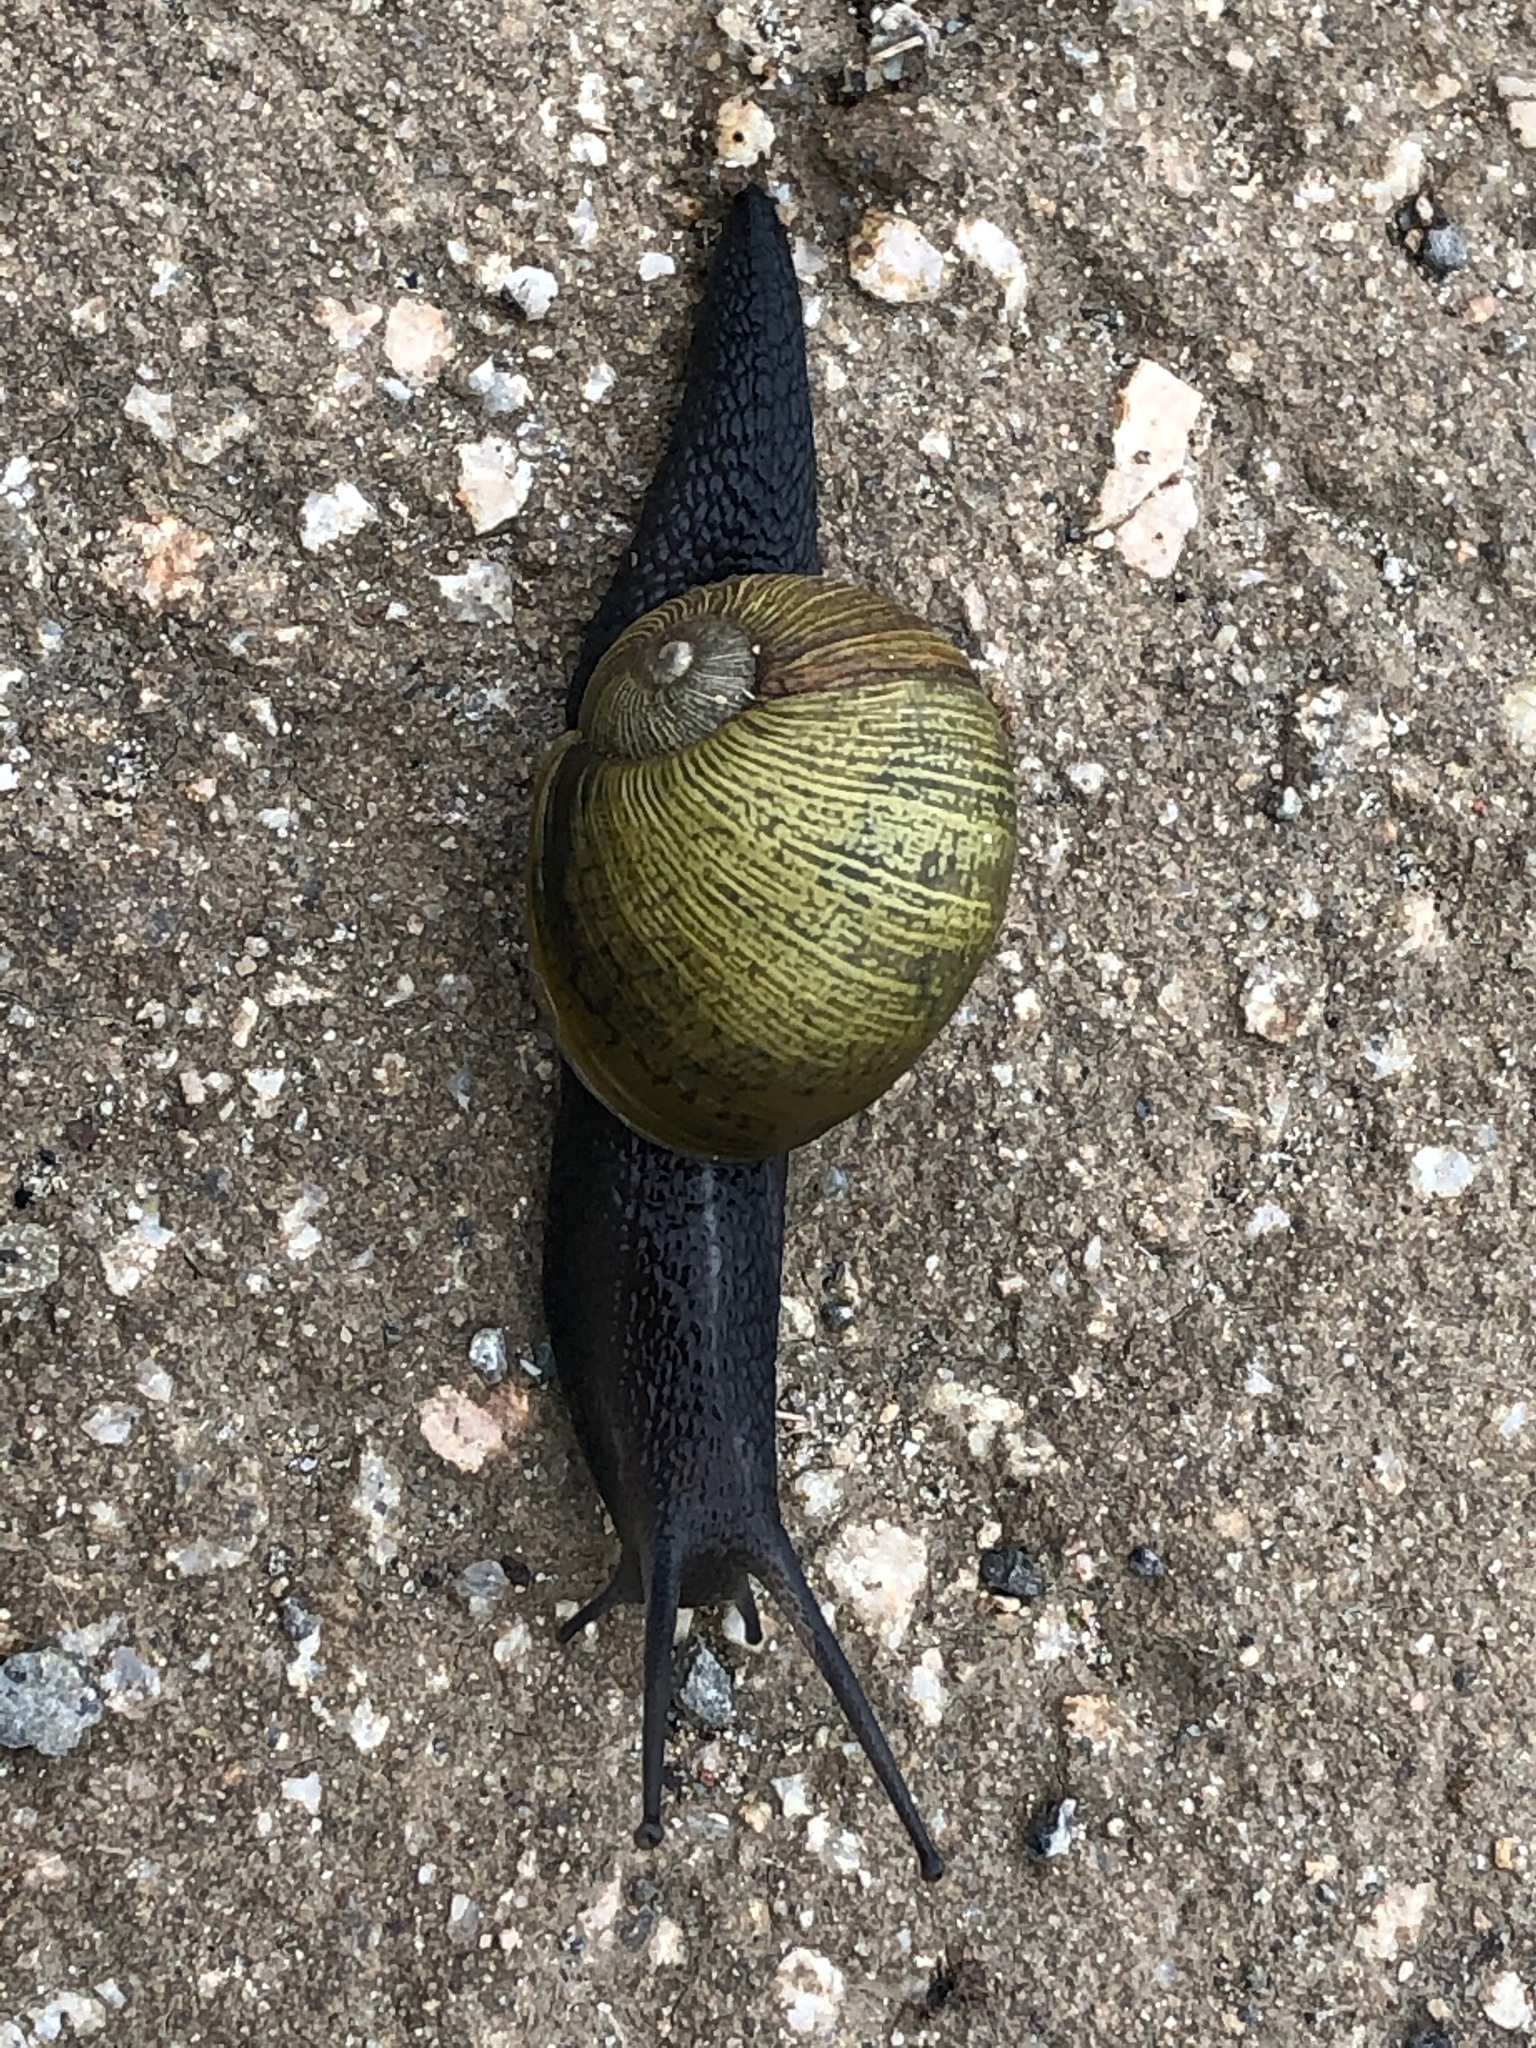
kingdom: Animalia
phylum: Mollusca
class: Gastropoda
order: Stylommatophora
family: Helicidae
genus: Cantareus
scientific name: Cantareus apertus
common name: Green gardensnail
